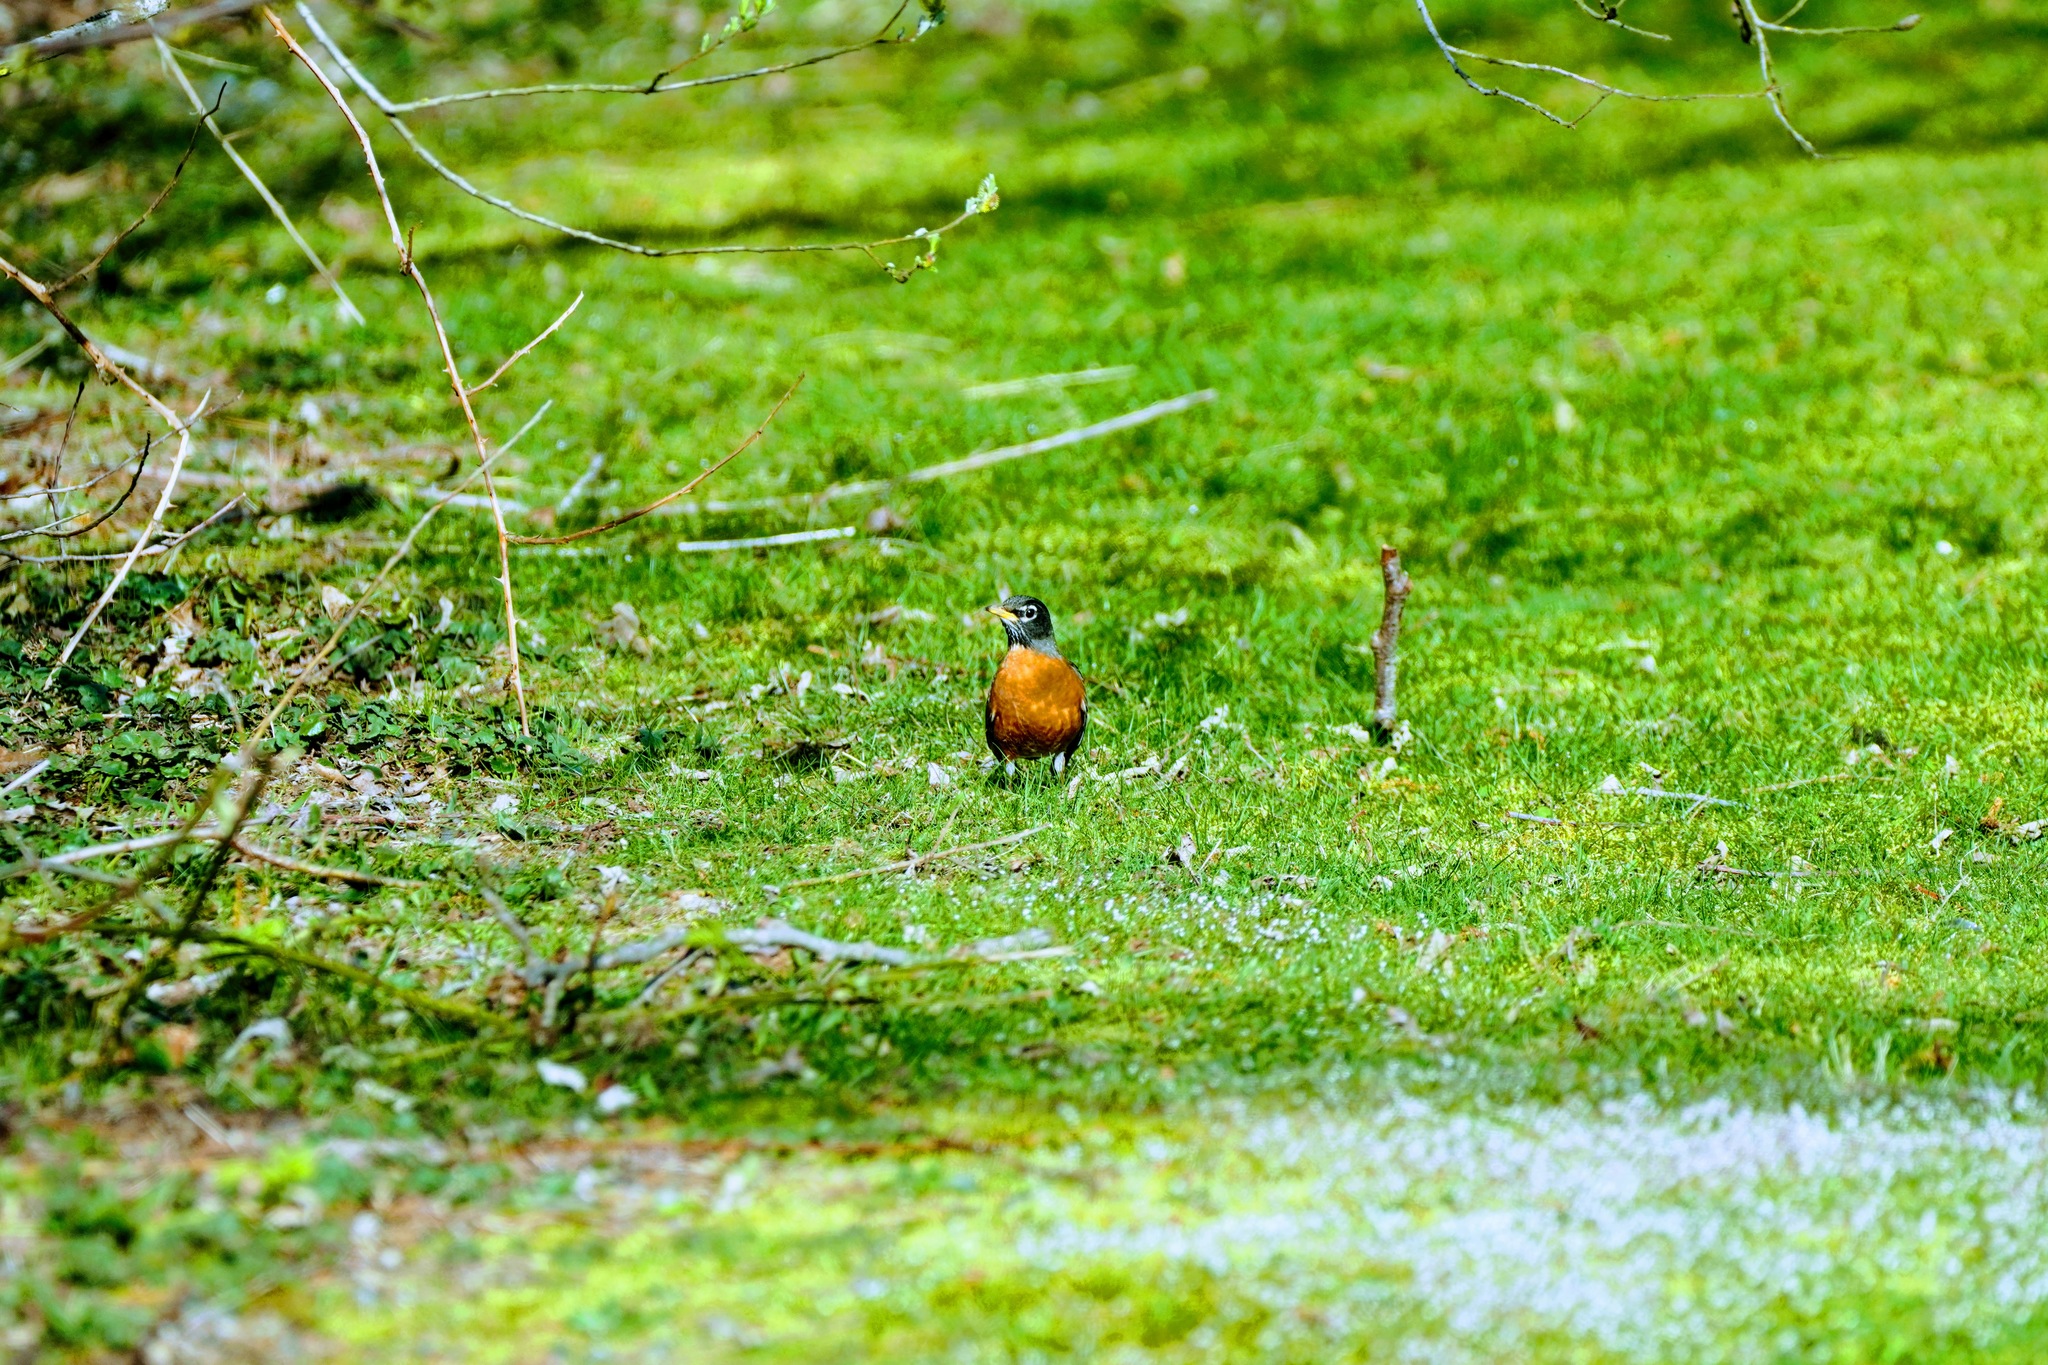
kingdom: Animalia
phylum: Chordata
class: Aves
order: Passeriformes
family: Turdidae
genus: Turdus
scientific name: Turdus migratorius
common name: American robin
